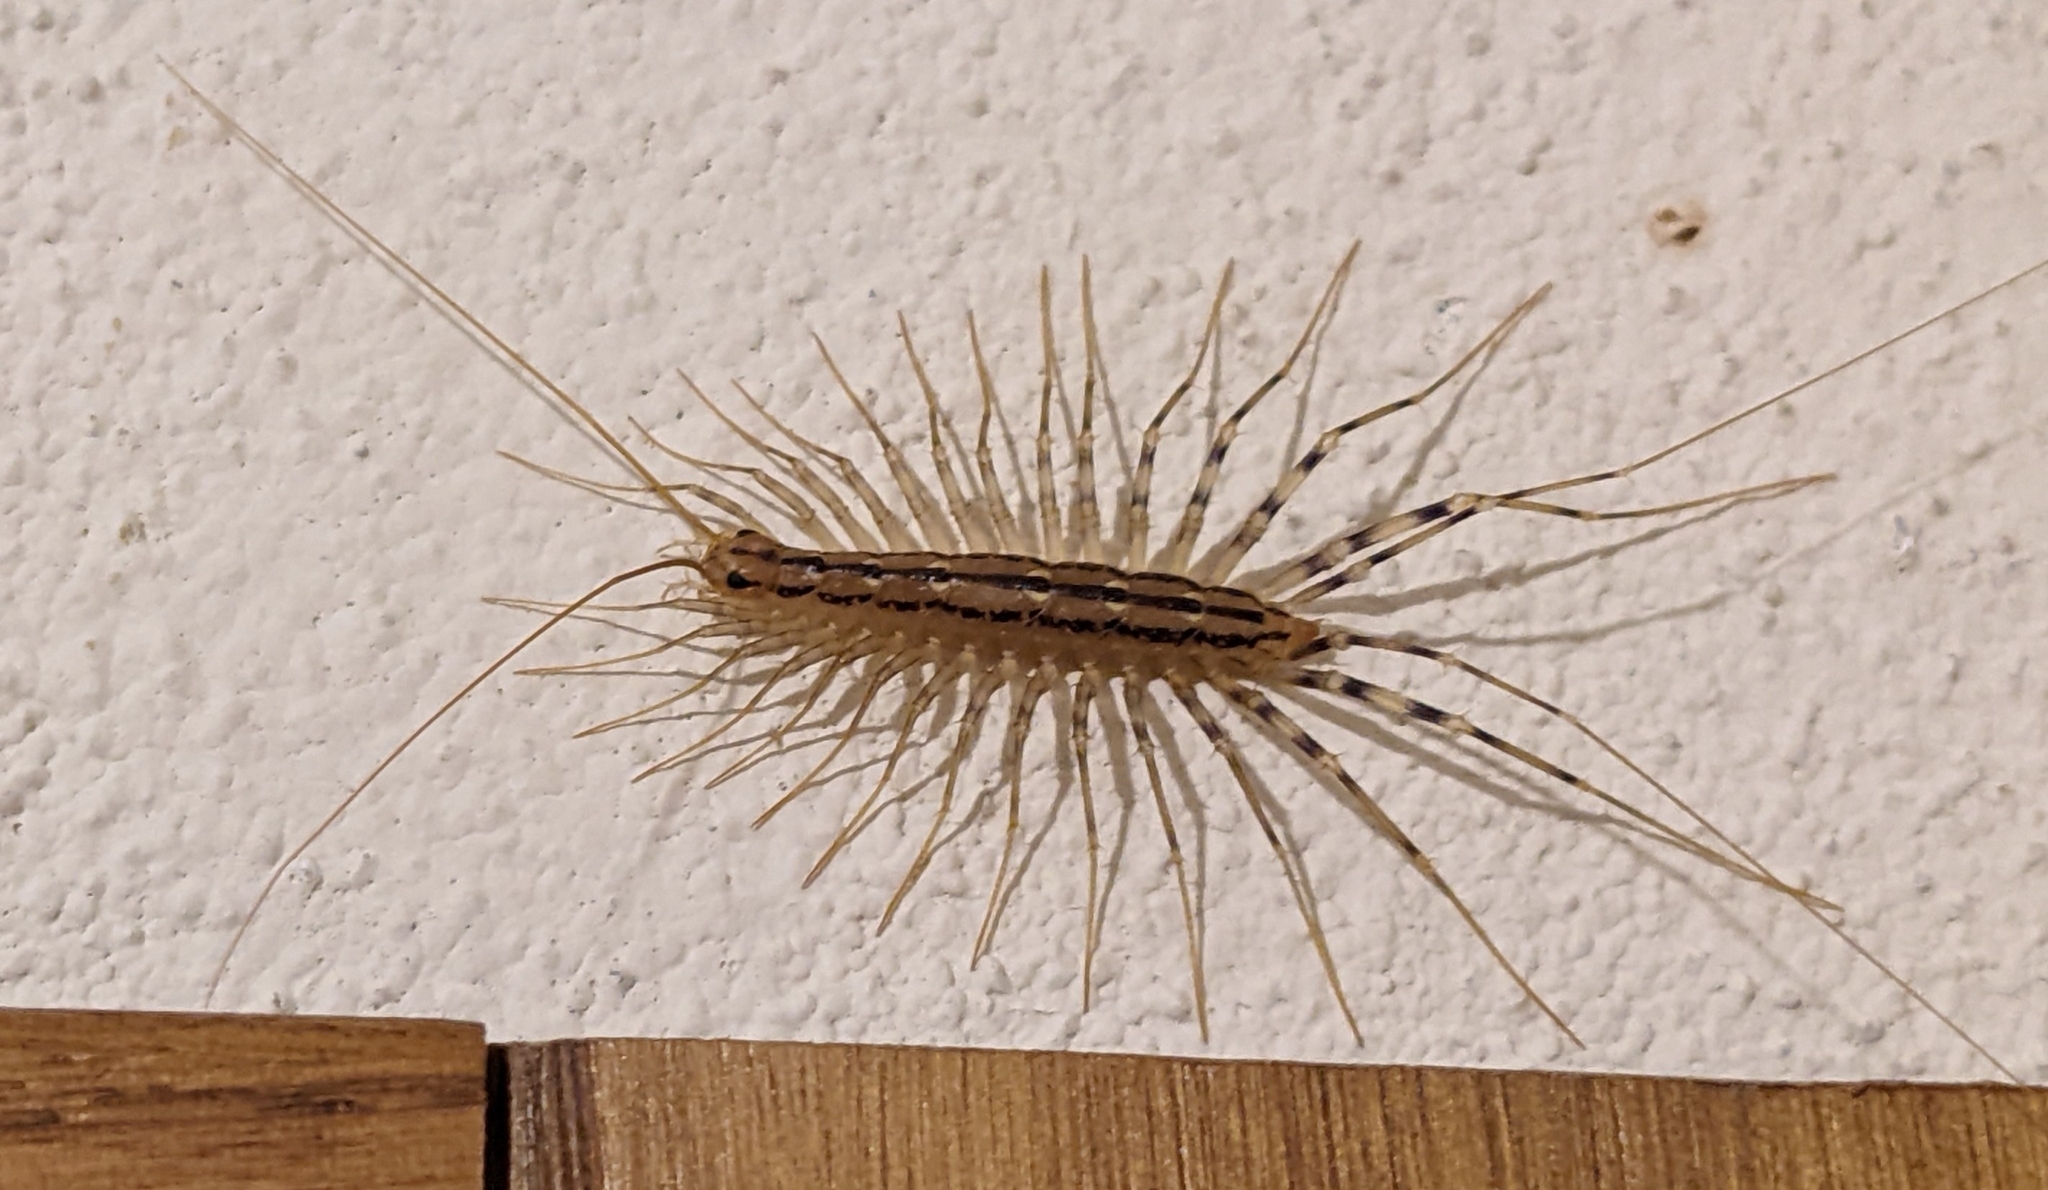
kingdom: Animalia
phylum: Arthropoda
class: Chilopoda
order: Scutigeromorpha
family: Scutigeridae
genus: Scutigera
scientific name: Scutigera coleoptrata
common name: House centipede
